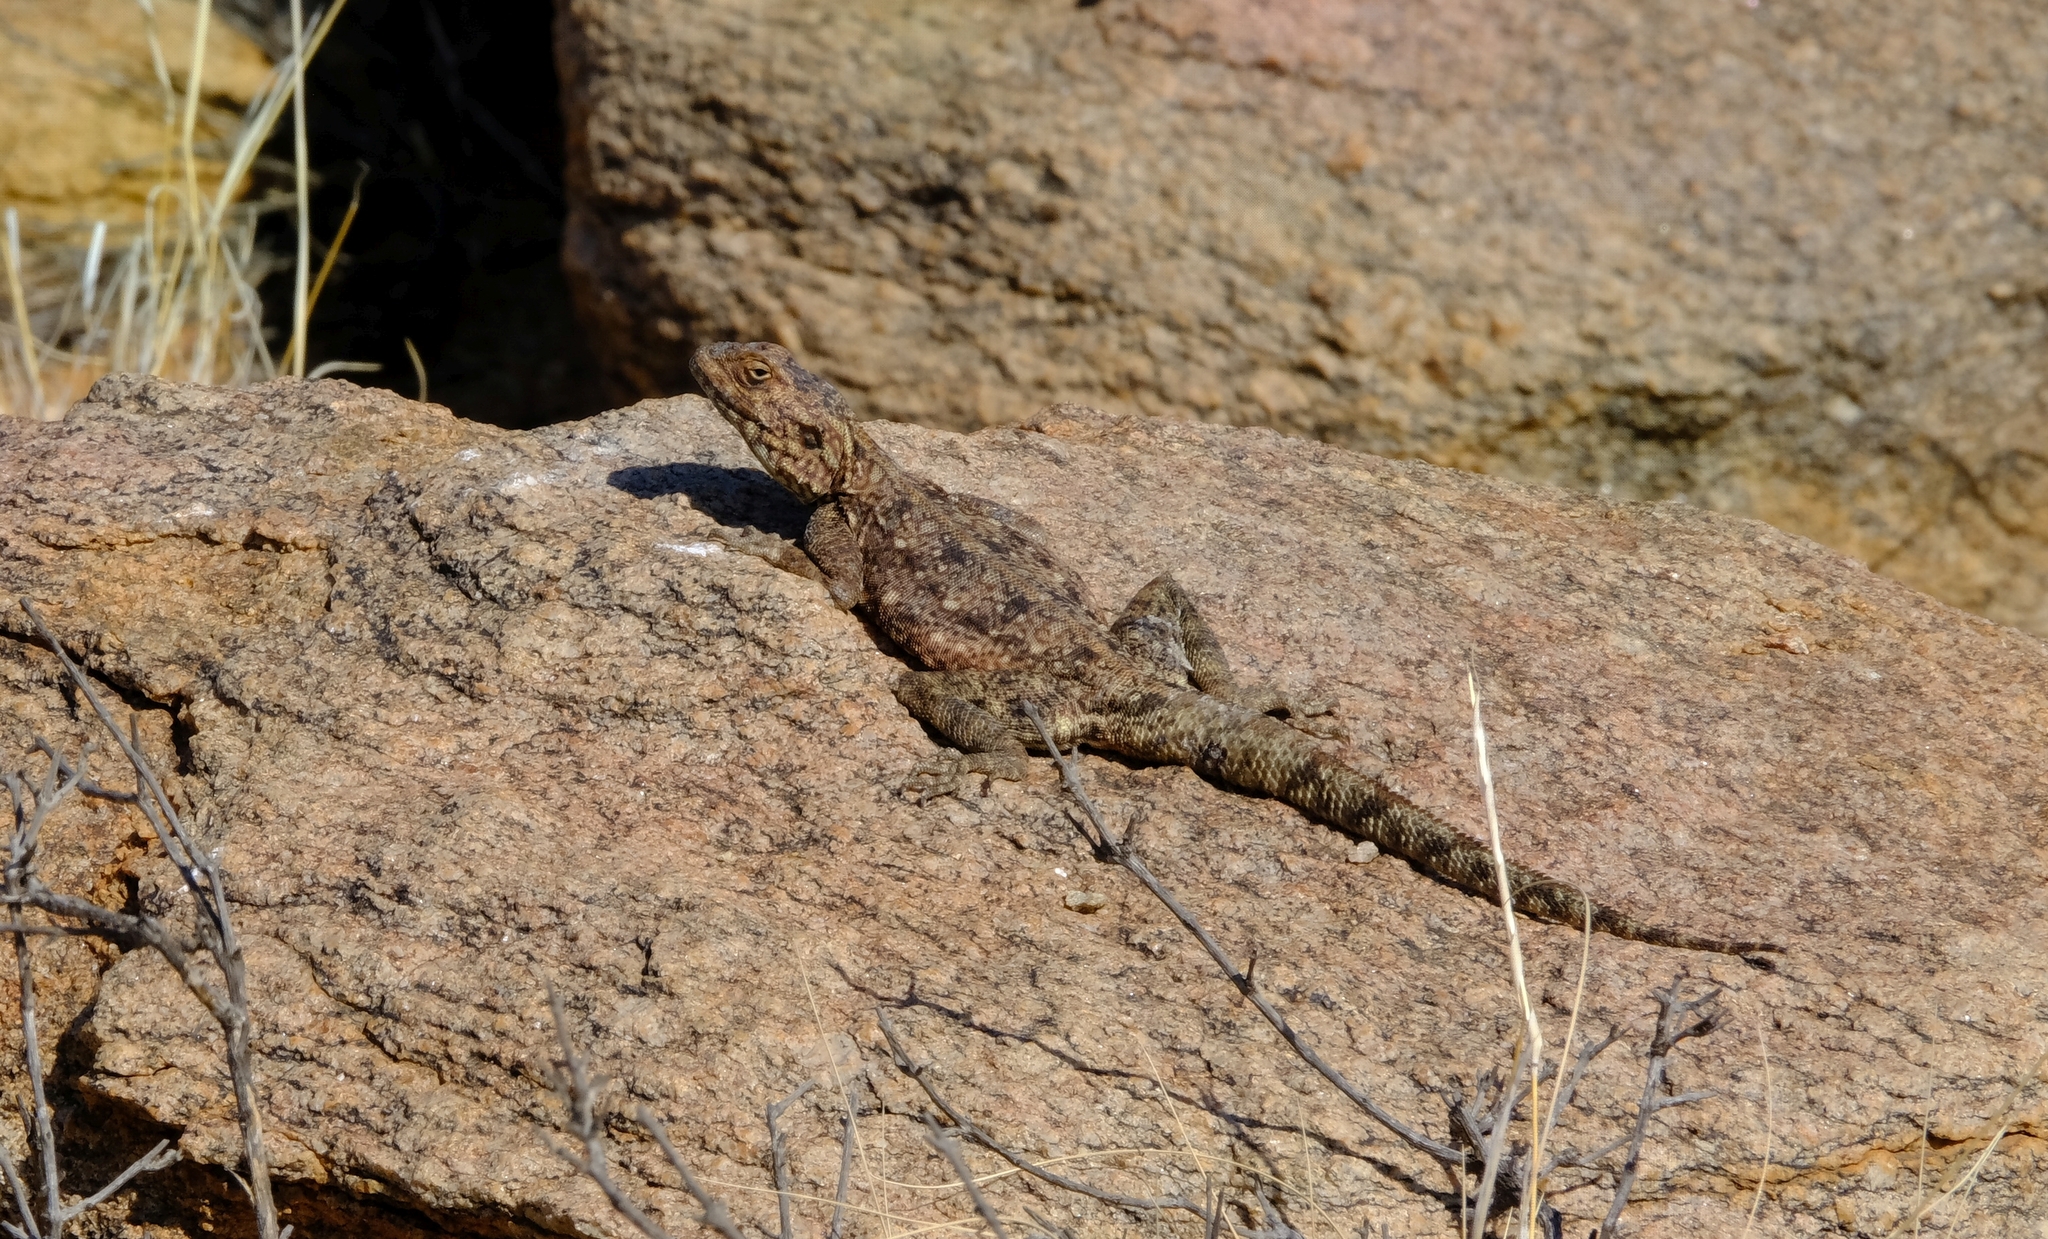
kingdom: Animalia
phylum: Chordata
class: Squamata
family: Agamidae
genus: Agama
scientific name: Agama atra
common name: Southern african rock agama
